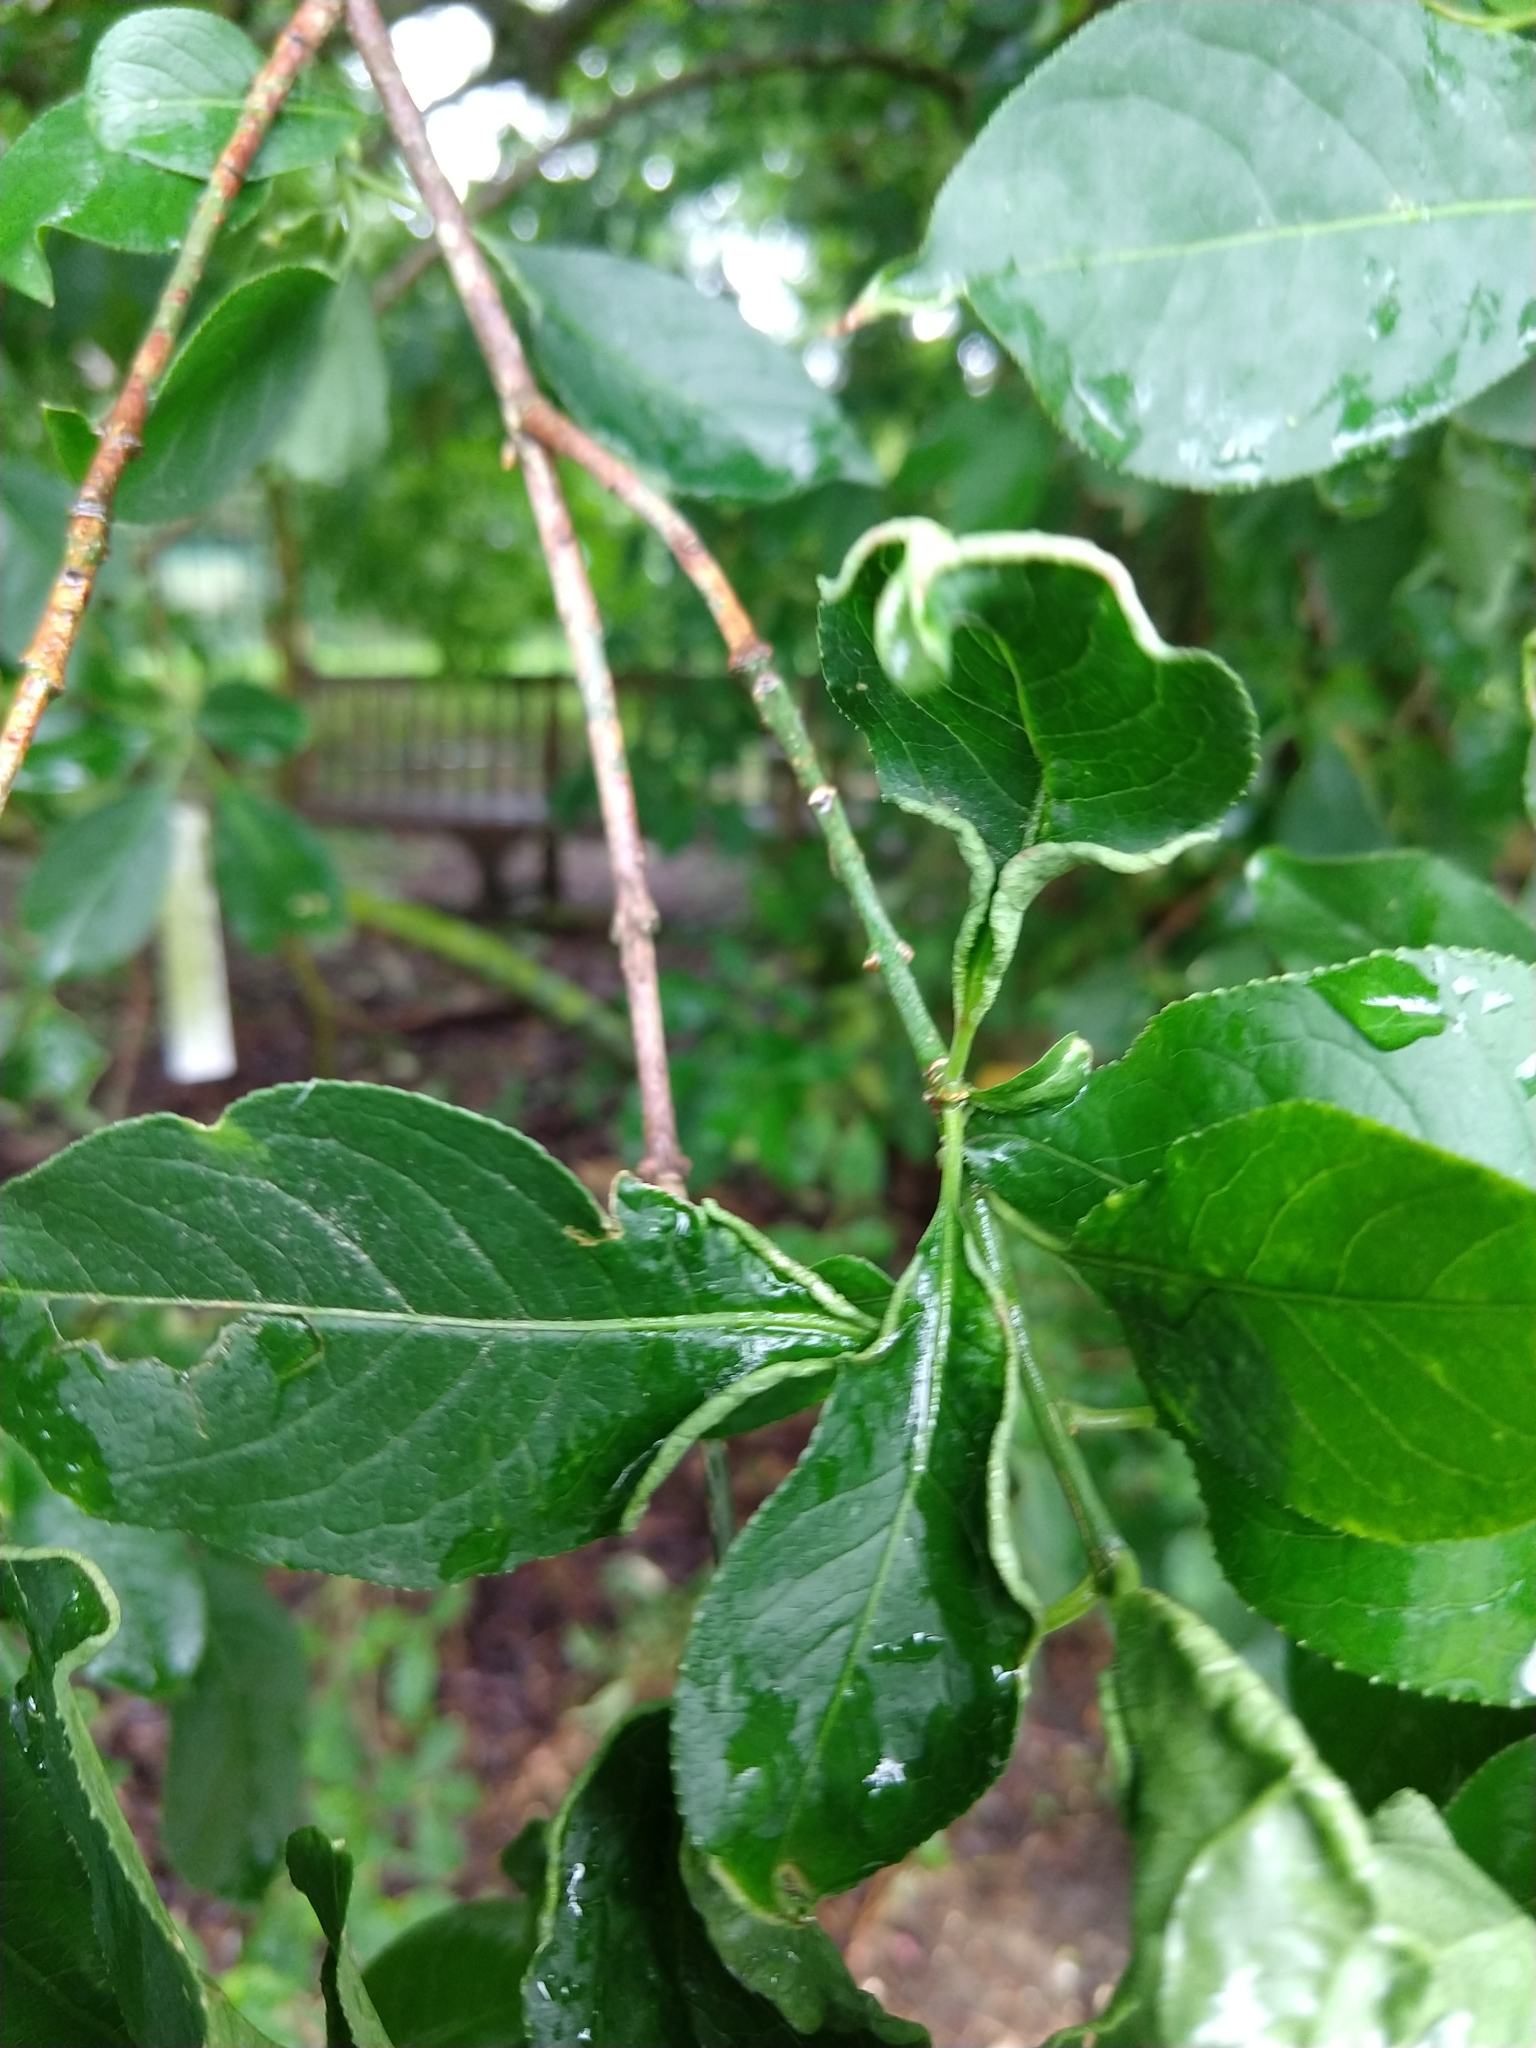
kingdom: Animalia
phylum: Arthropoda
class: Arachnida
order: Trombidiformes
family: Eriophyidae
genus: Stenacis
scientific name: Stenacis evonymi
